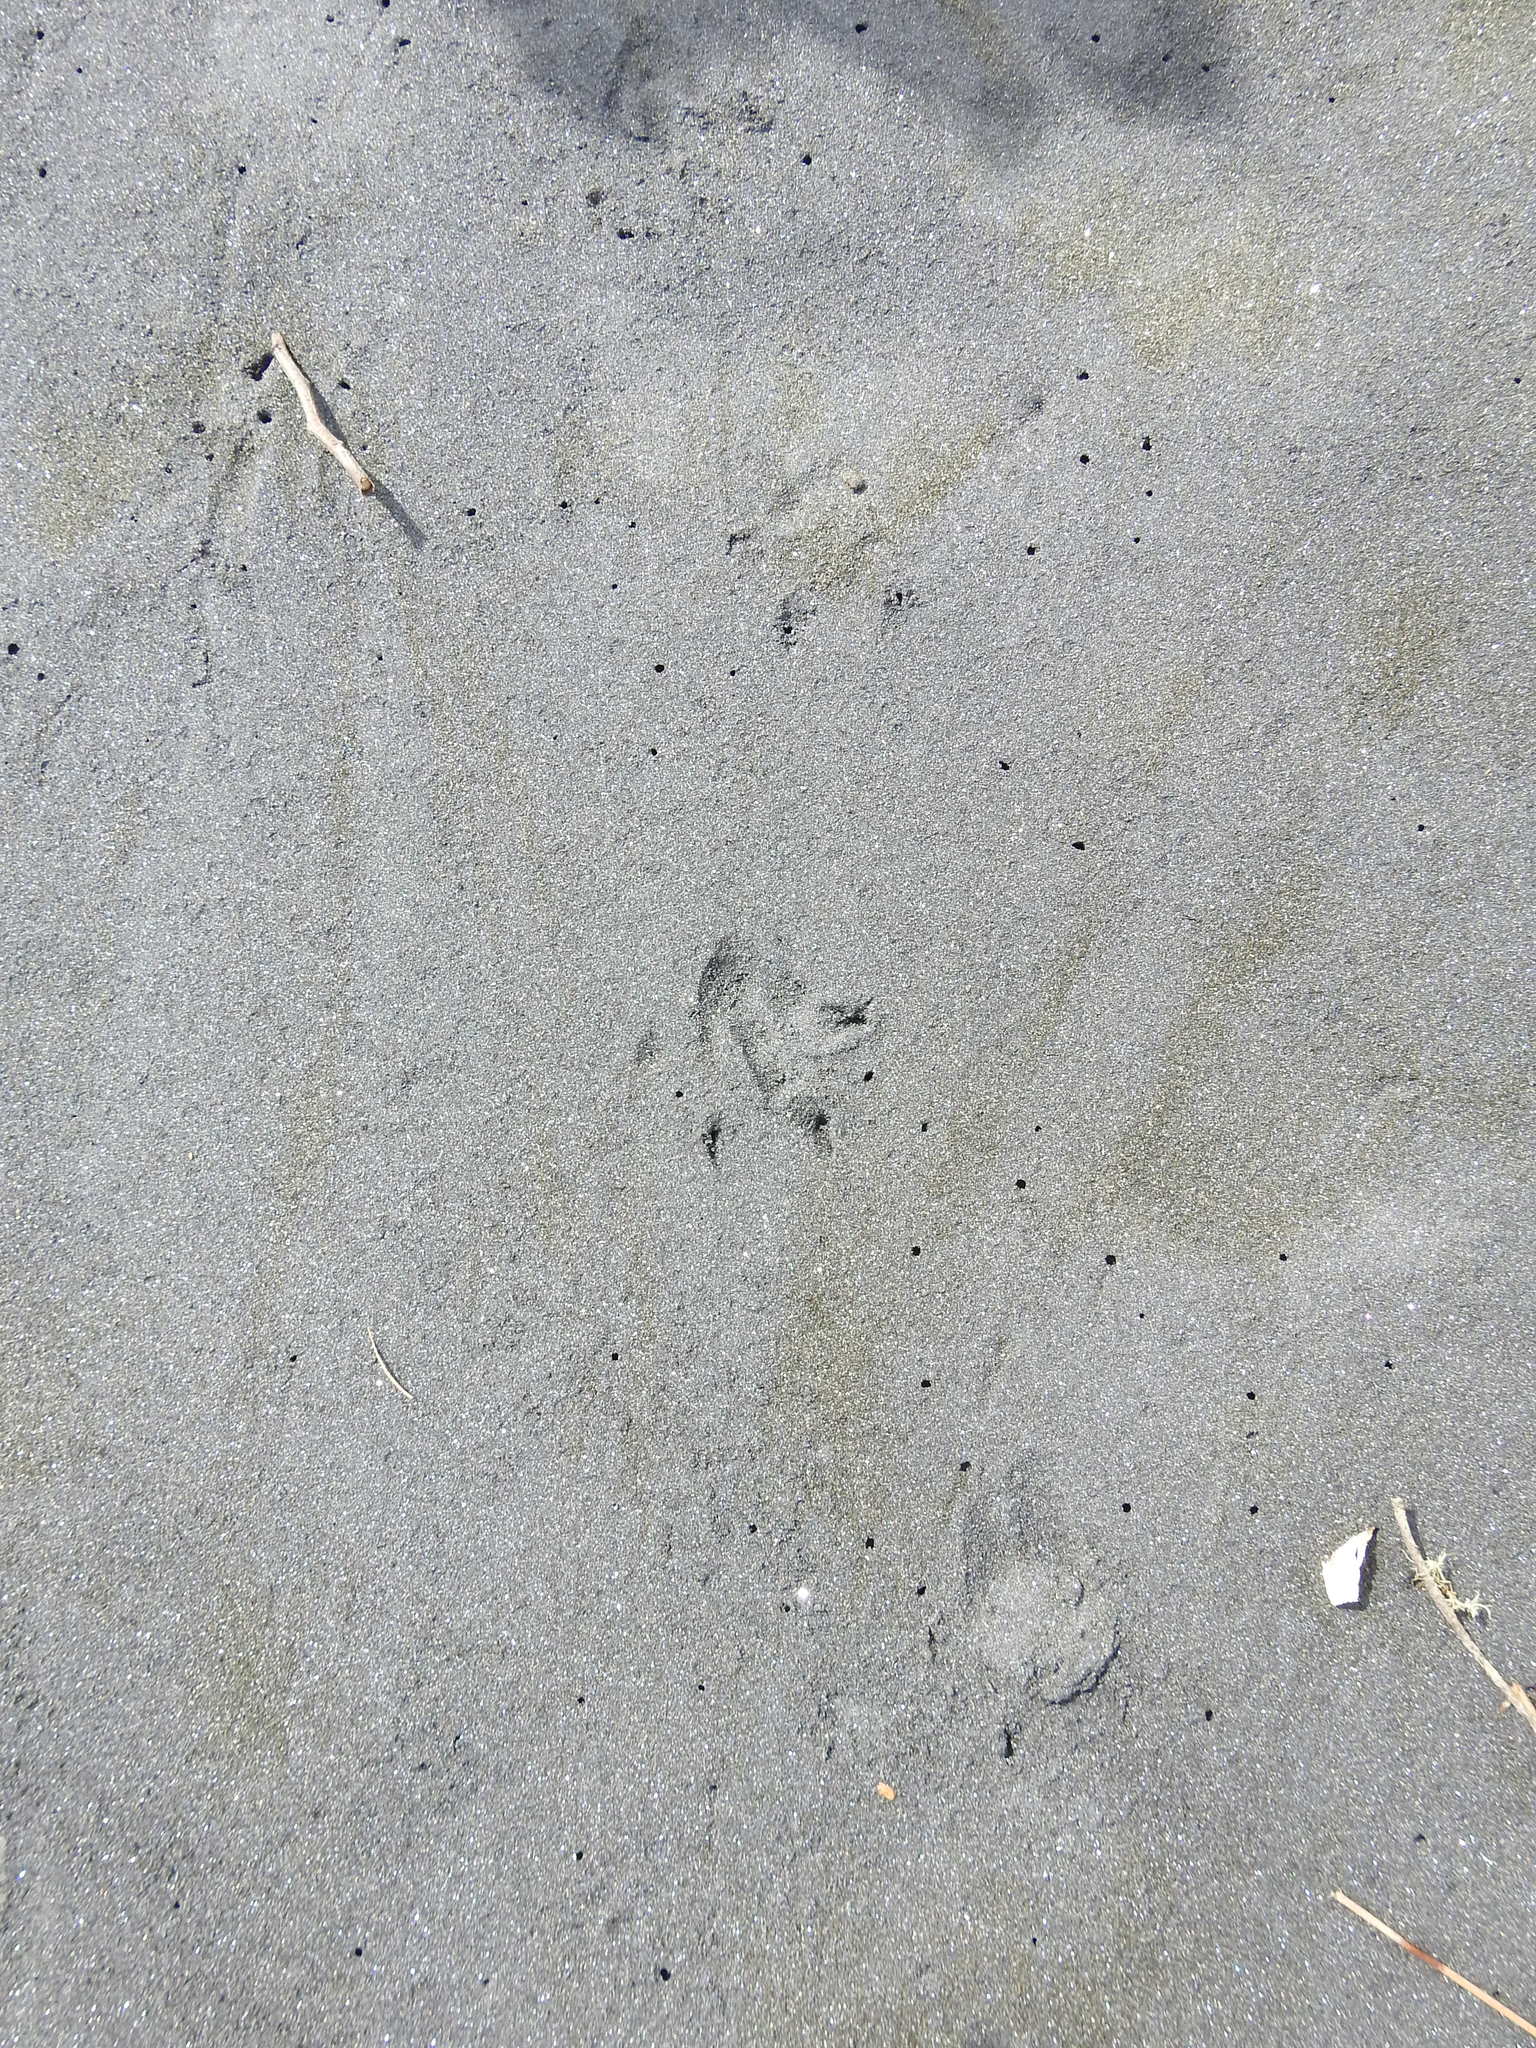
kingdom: Animalia
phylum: Chordata
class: Aves
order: Sphenisciformes
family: Spheniscidae
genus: Eudyptula
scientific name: Eudyptula minor
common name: Little penguin
